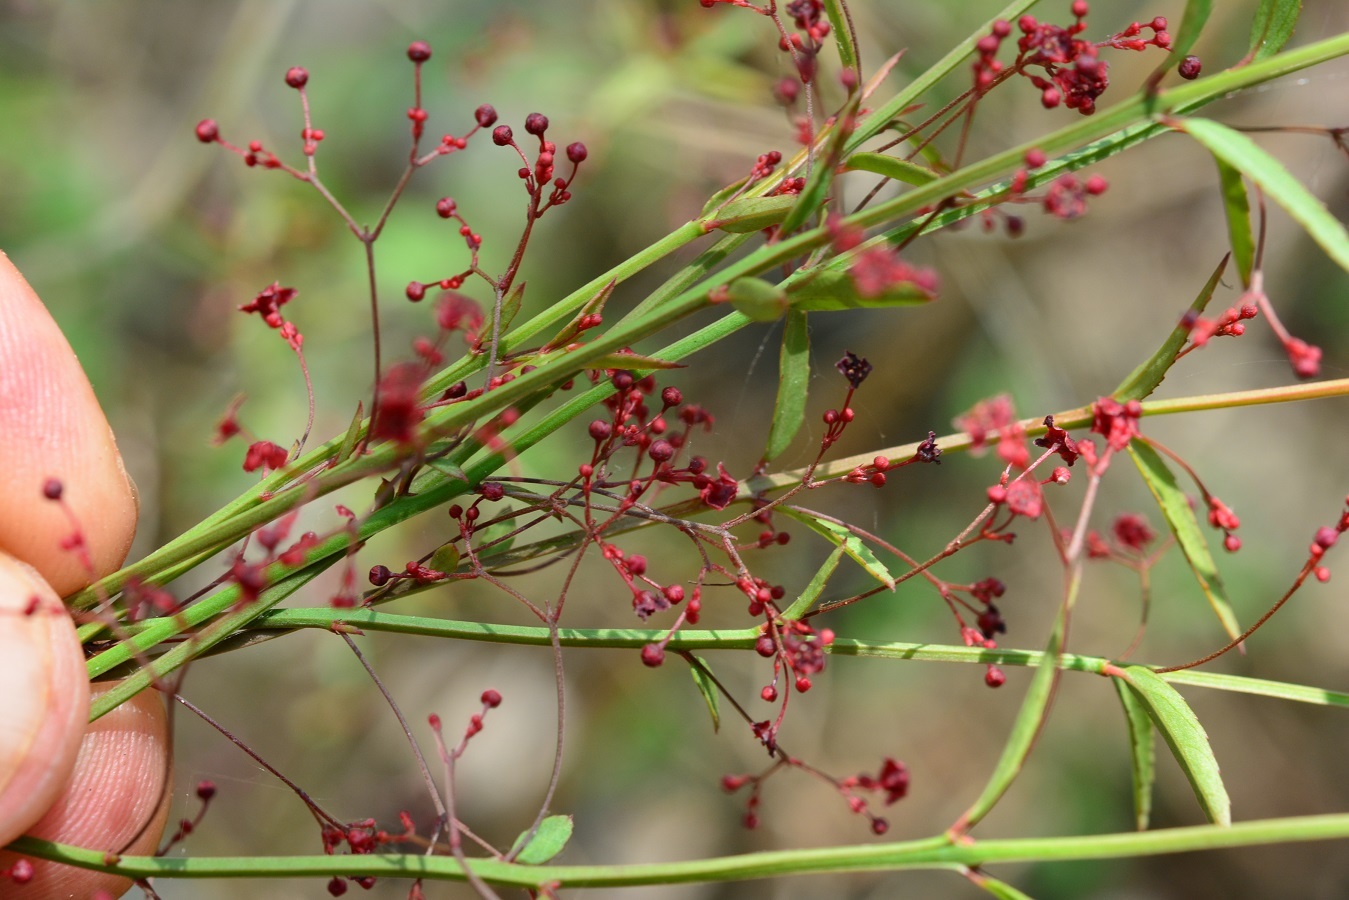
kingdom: Plantae
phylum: Tracheophyta
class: Magnoliopsida
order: Celastrales
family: Celastraceae
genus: Crossopetalum
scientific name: Crossopetalum uragoga
